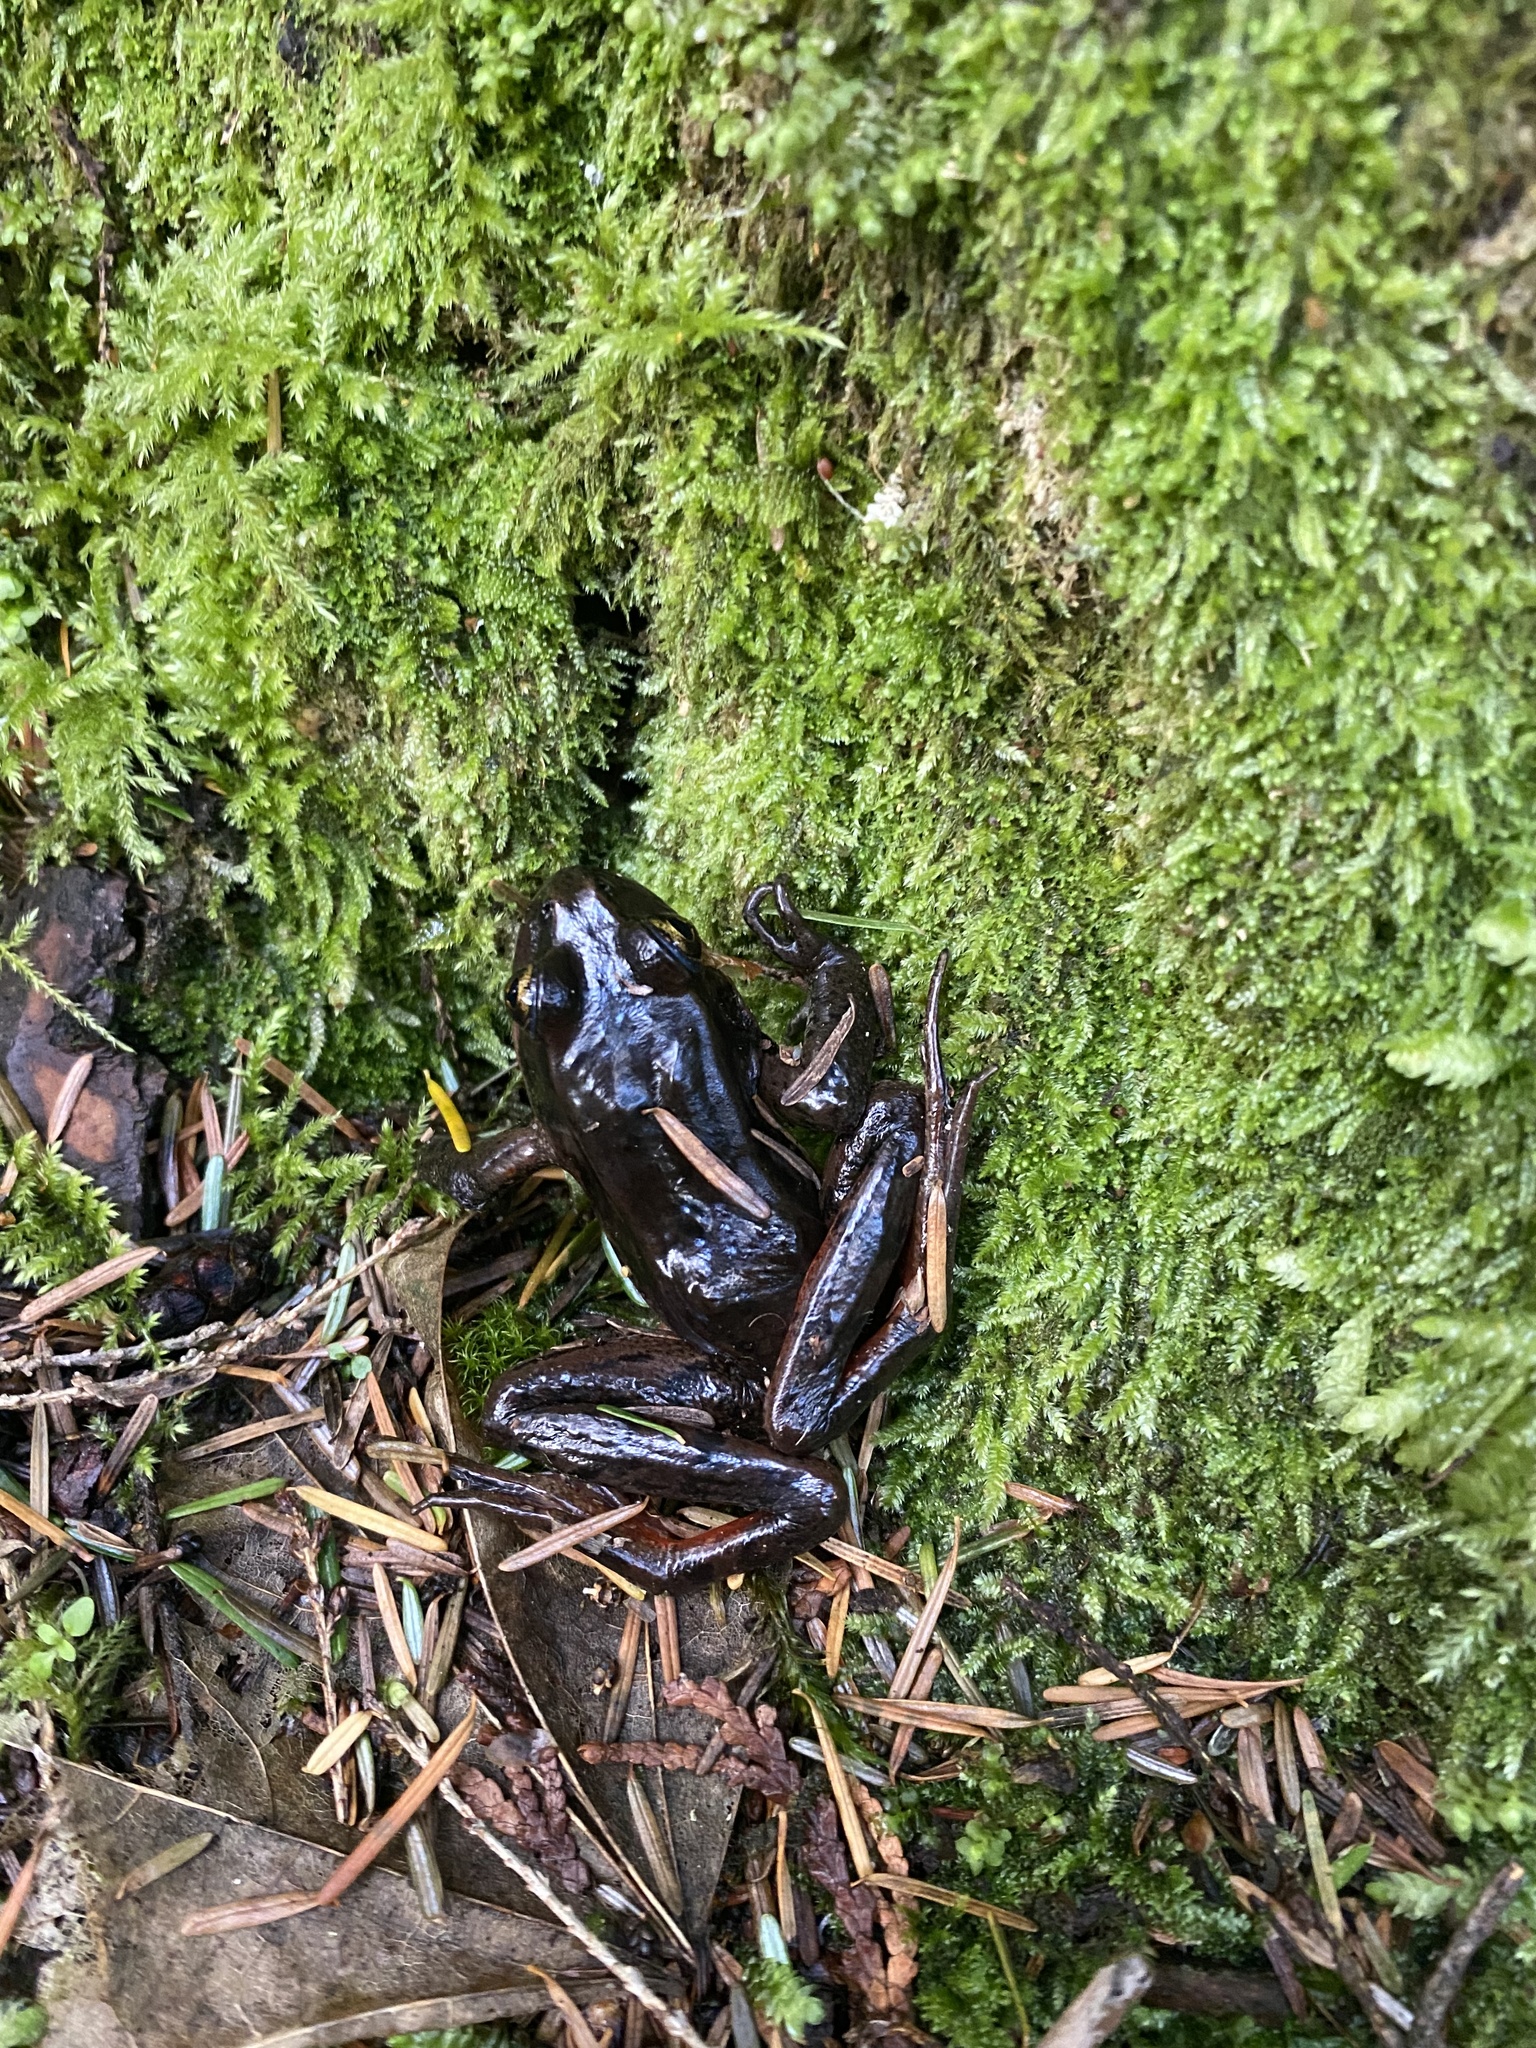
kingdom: Animalia
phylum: Chordata
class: Amphibia
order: Anura
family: Ranidae
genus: Rana
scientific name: Rana aurora
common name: Red-legged frog
